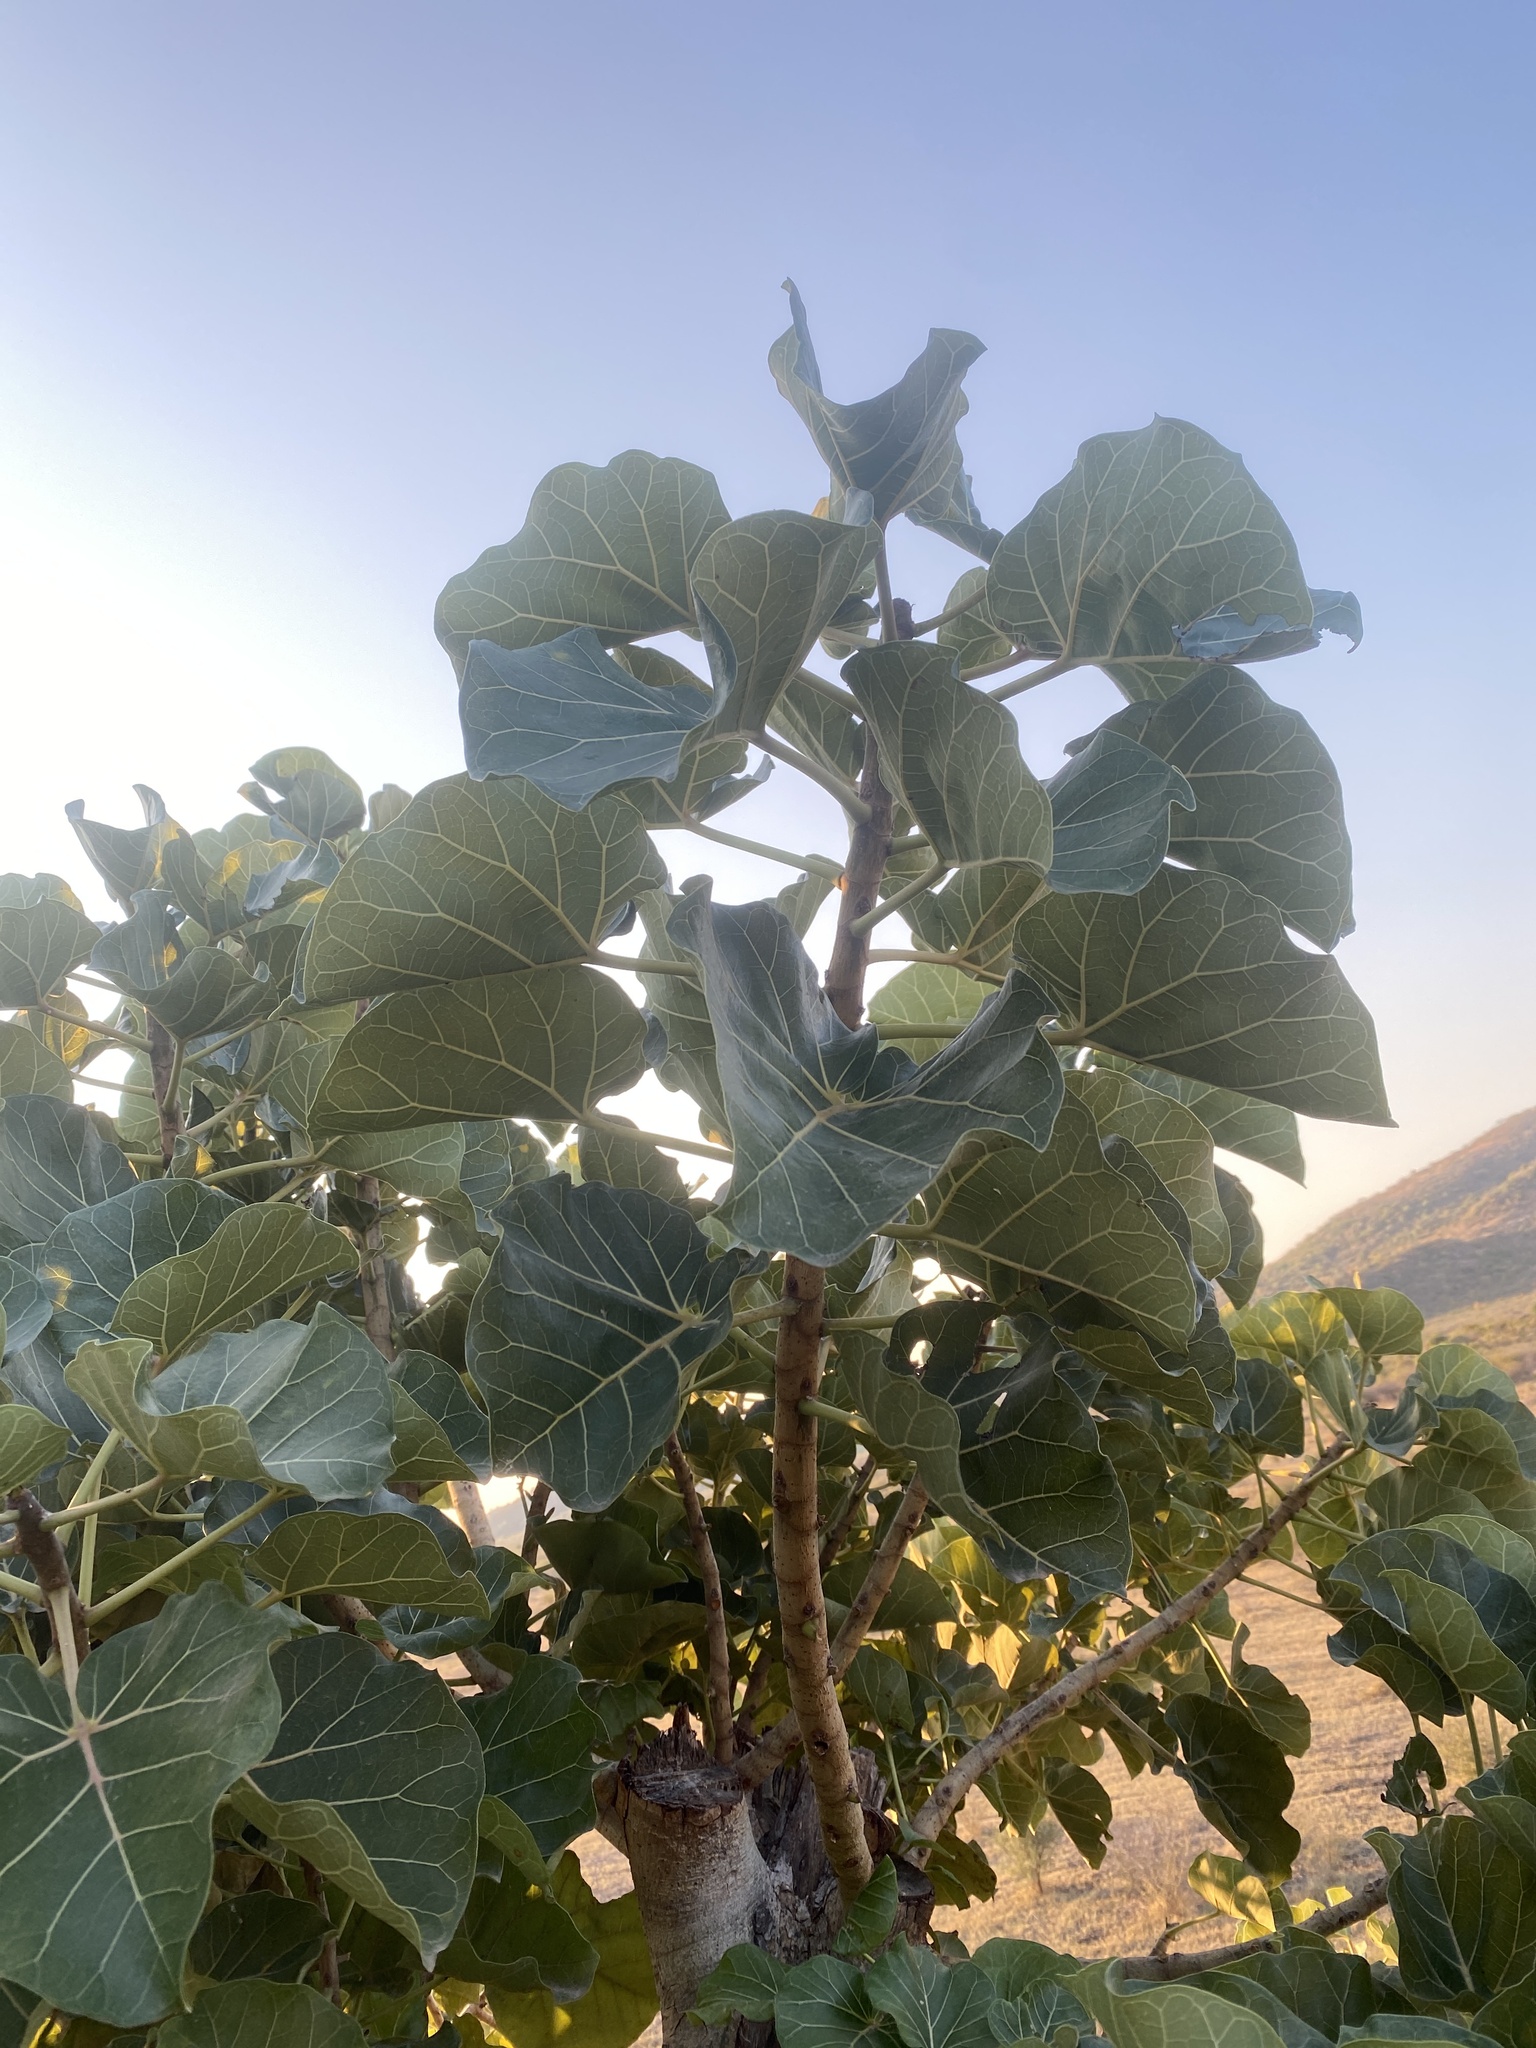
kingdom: Plantae
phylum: Tracheophyta
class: Magnoliopsida
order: Rosales
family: Moraceae
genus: Ficus
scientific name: Ficus abutilifolia
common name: Large-leaved rock fig
